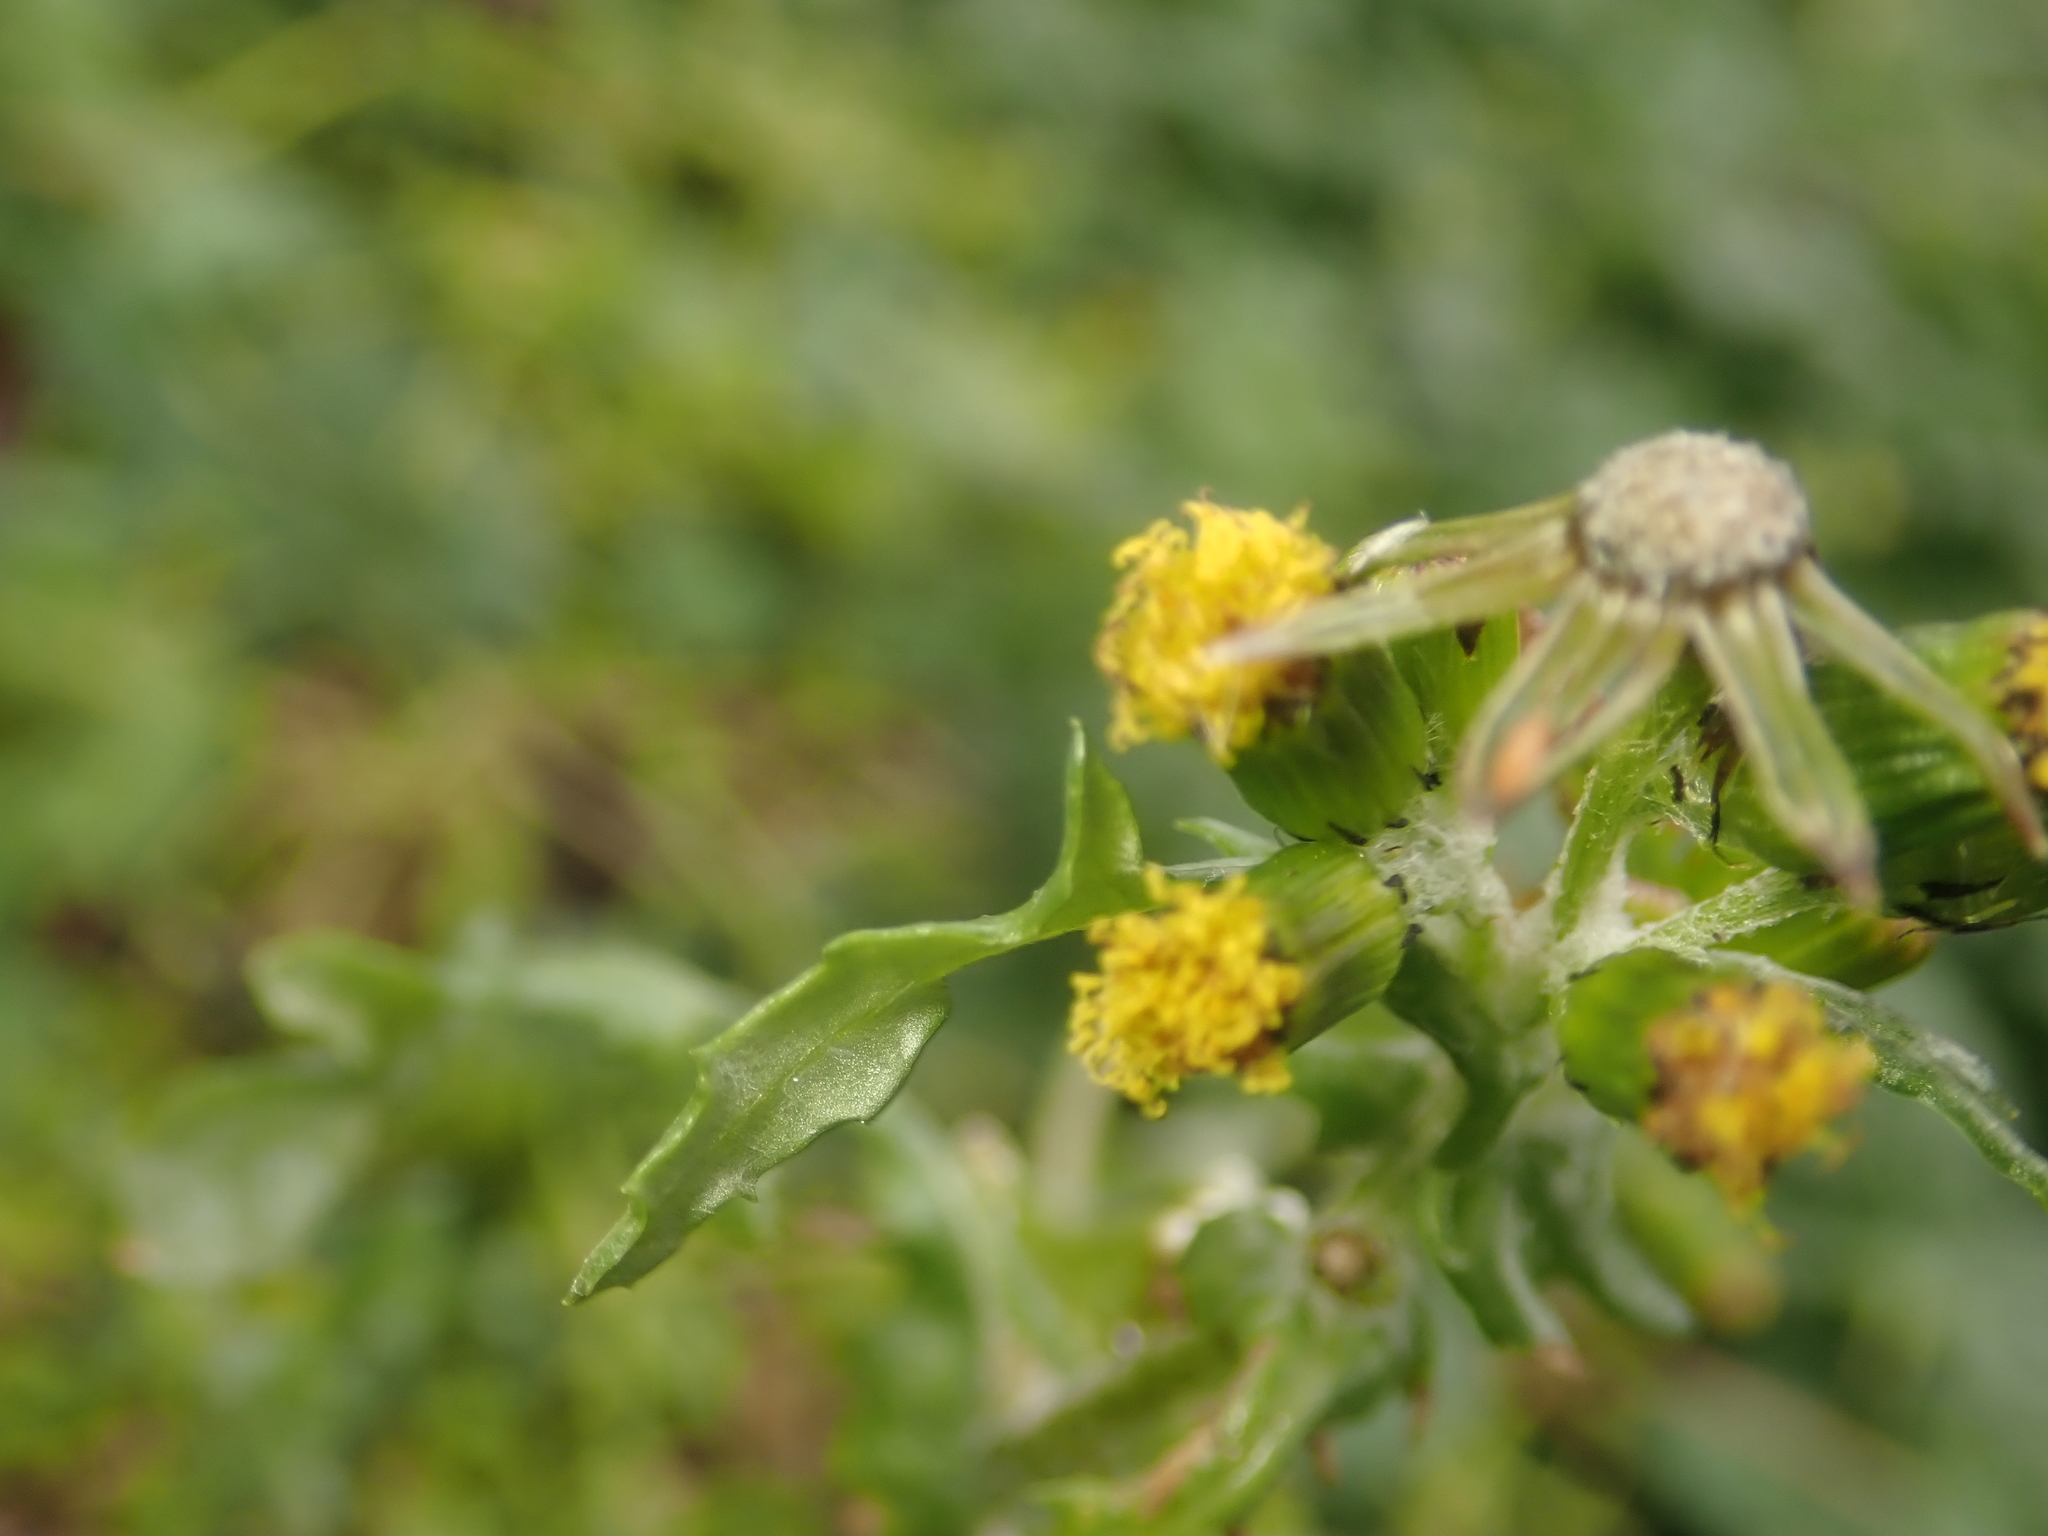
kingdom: Plantae
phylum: Tracheophyta
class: Magnoliopsida
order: Asterales
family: Asteraceae
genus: Senecio
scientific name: Senecio vulgaris
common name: Old-man-in-the-spring
